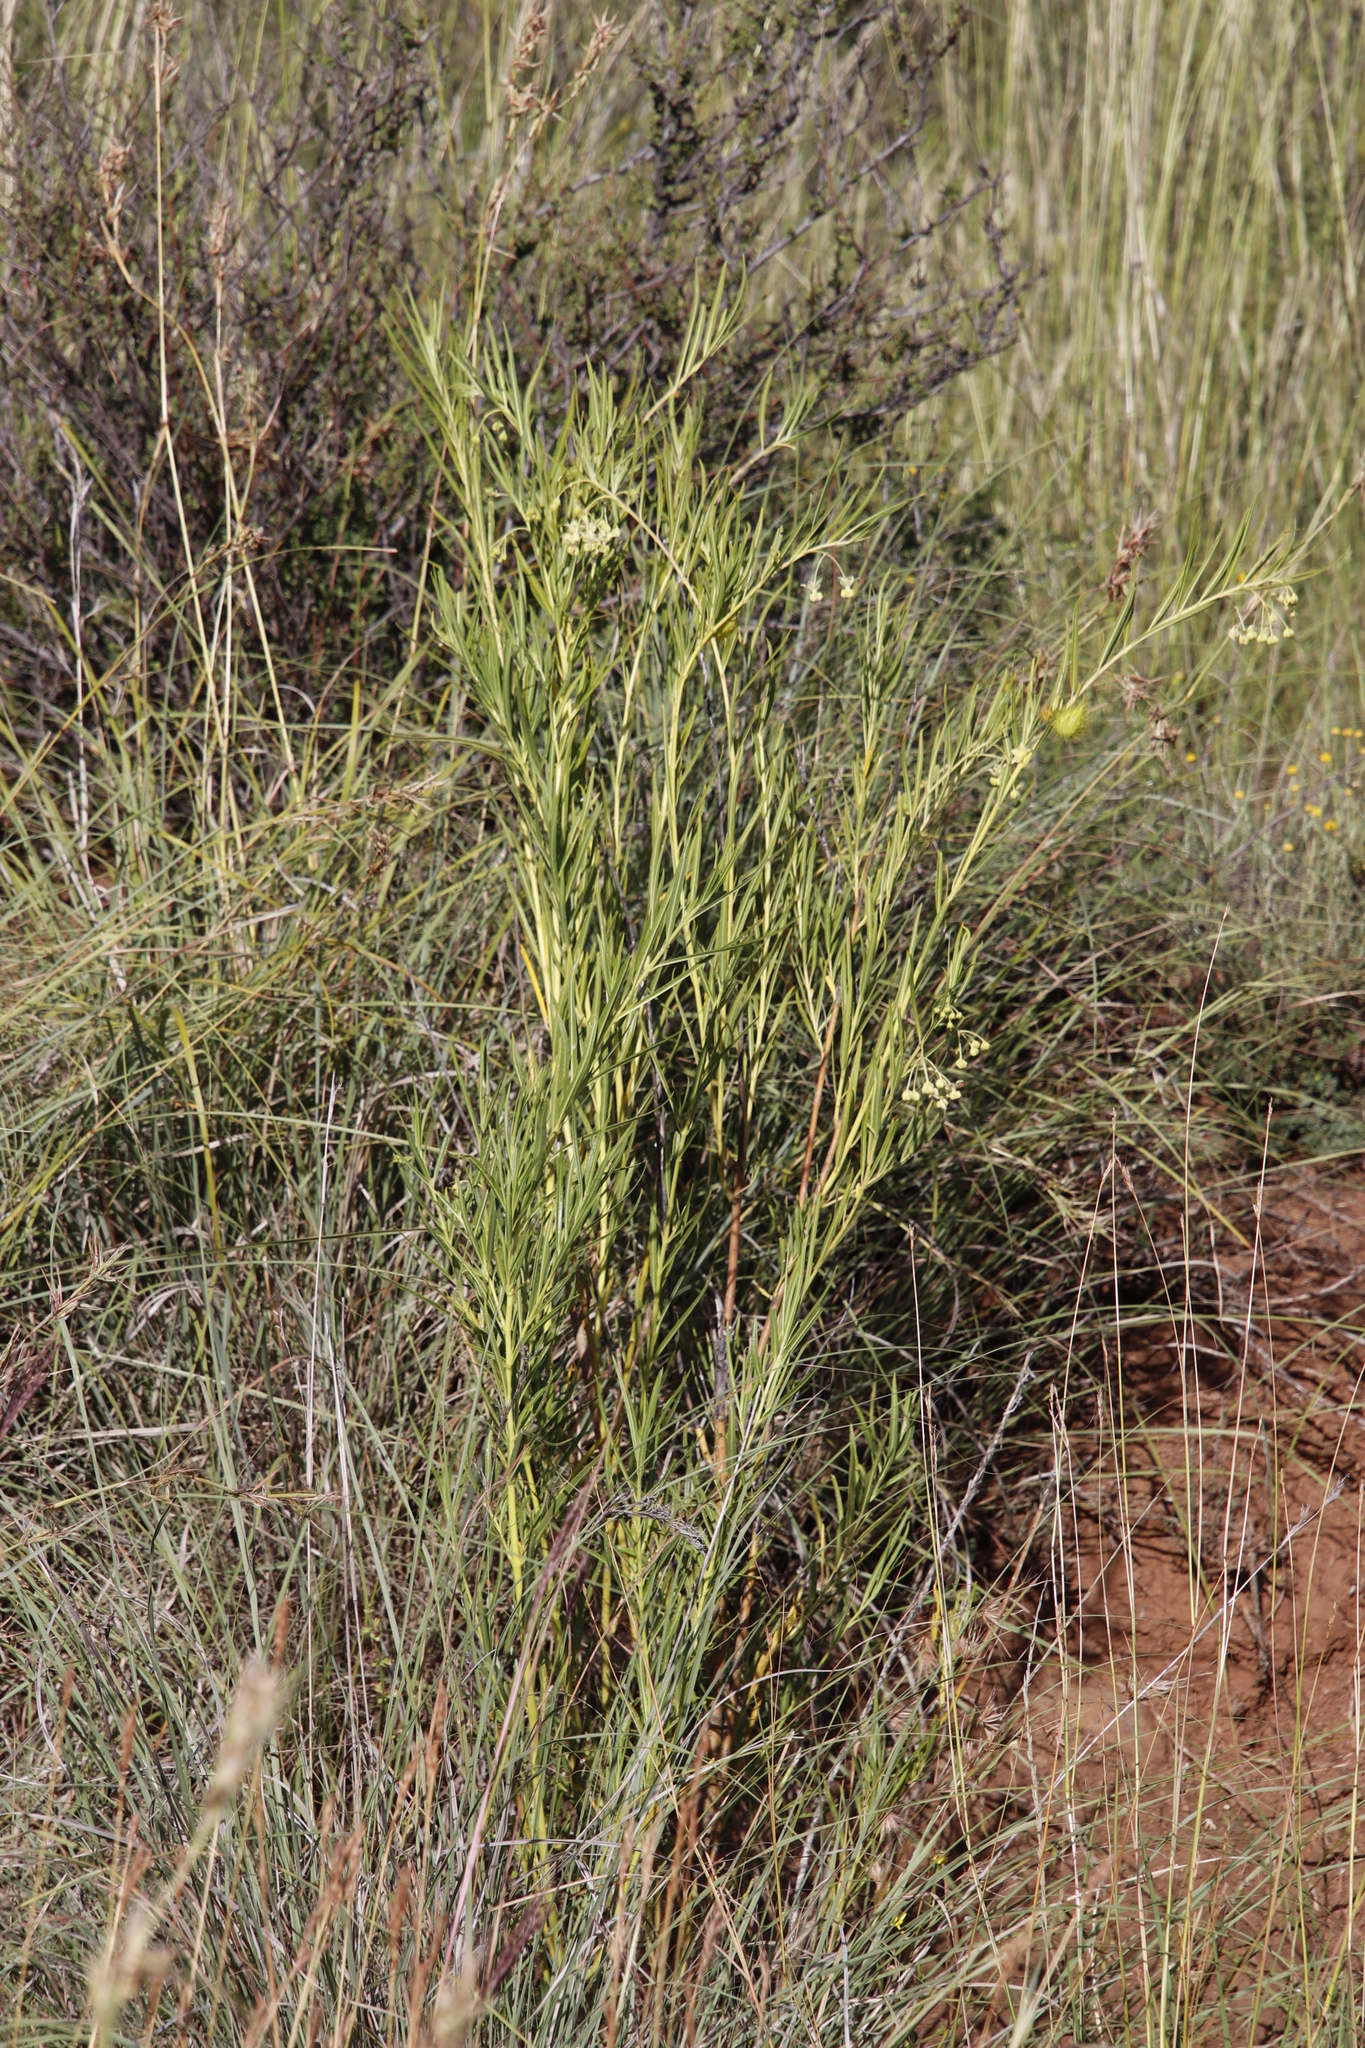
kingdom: Plantae
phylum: Tracheophyta
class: Magnoliopsida
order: Gentianales
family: Apocynaceae
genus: Gomphocarpus
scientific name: Gomphocarpus fruticosus
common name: Milkweed
